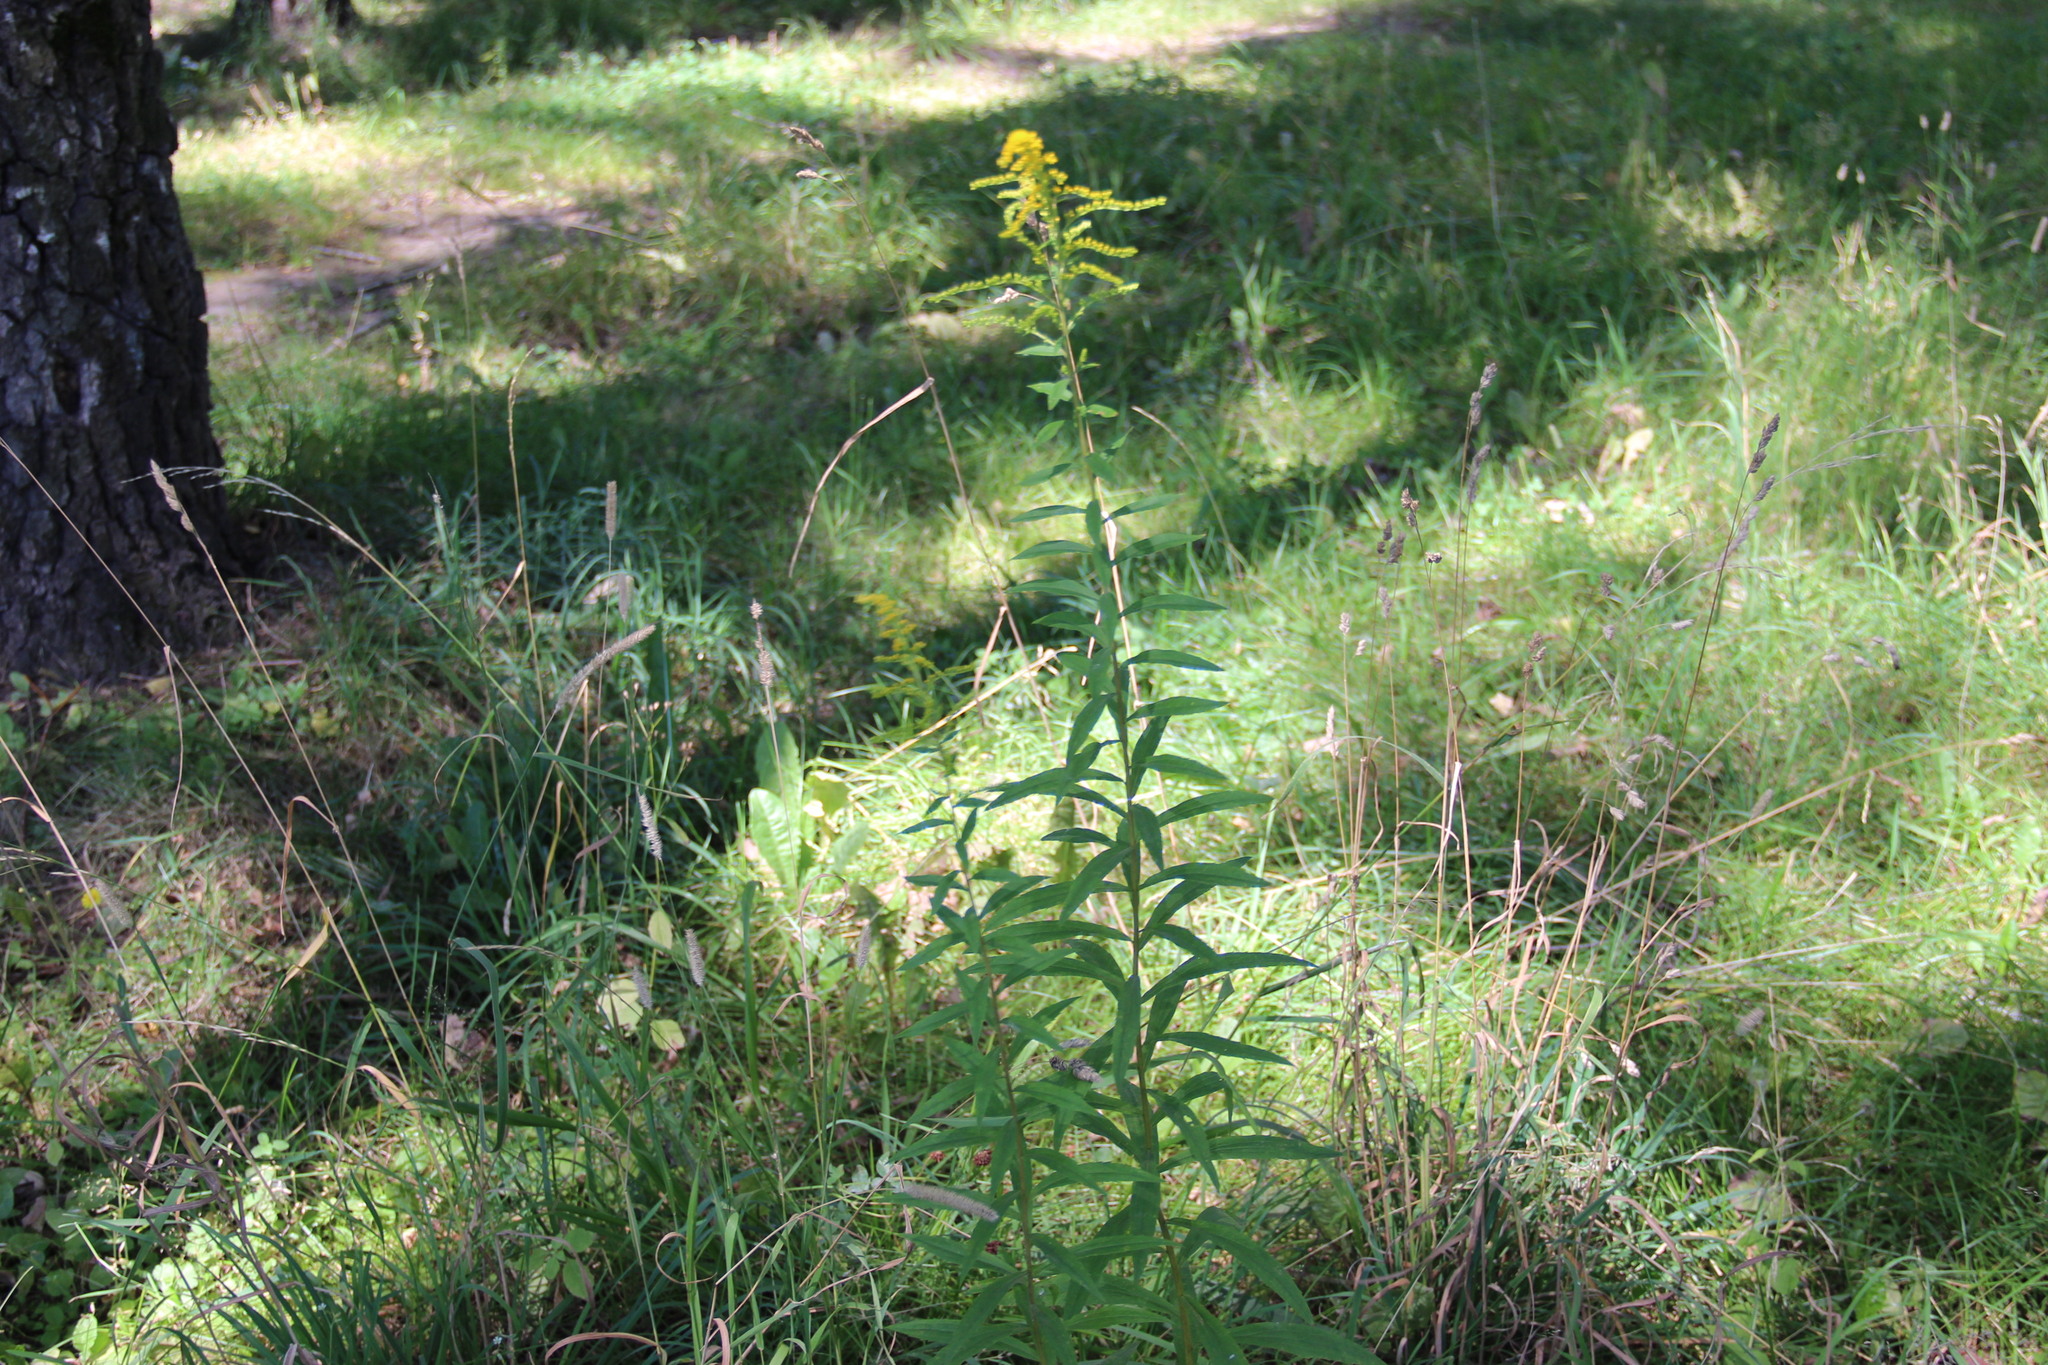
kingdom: Plantae
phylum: Tracheophyta
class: Magnoliopsida
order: Asterales
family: Asteraceae
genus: Solidago
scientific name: Solidago canadensis
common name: Canada goldenrod
